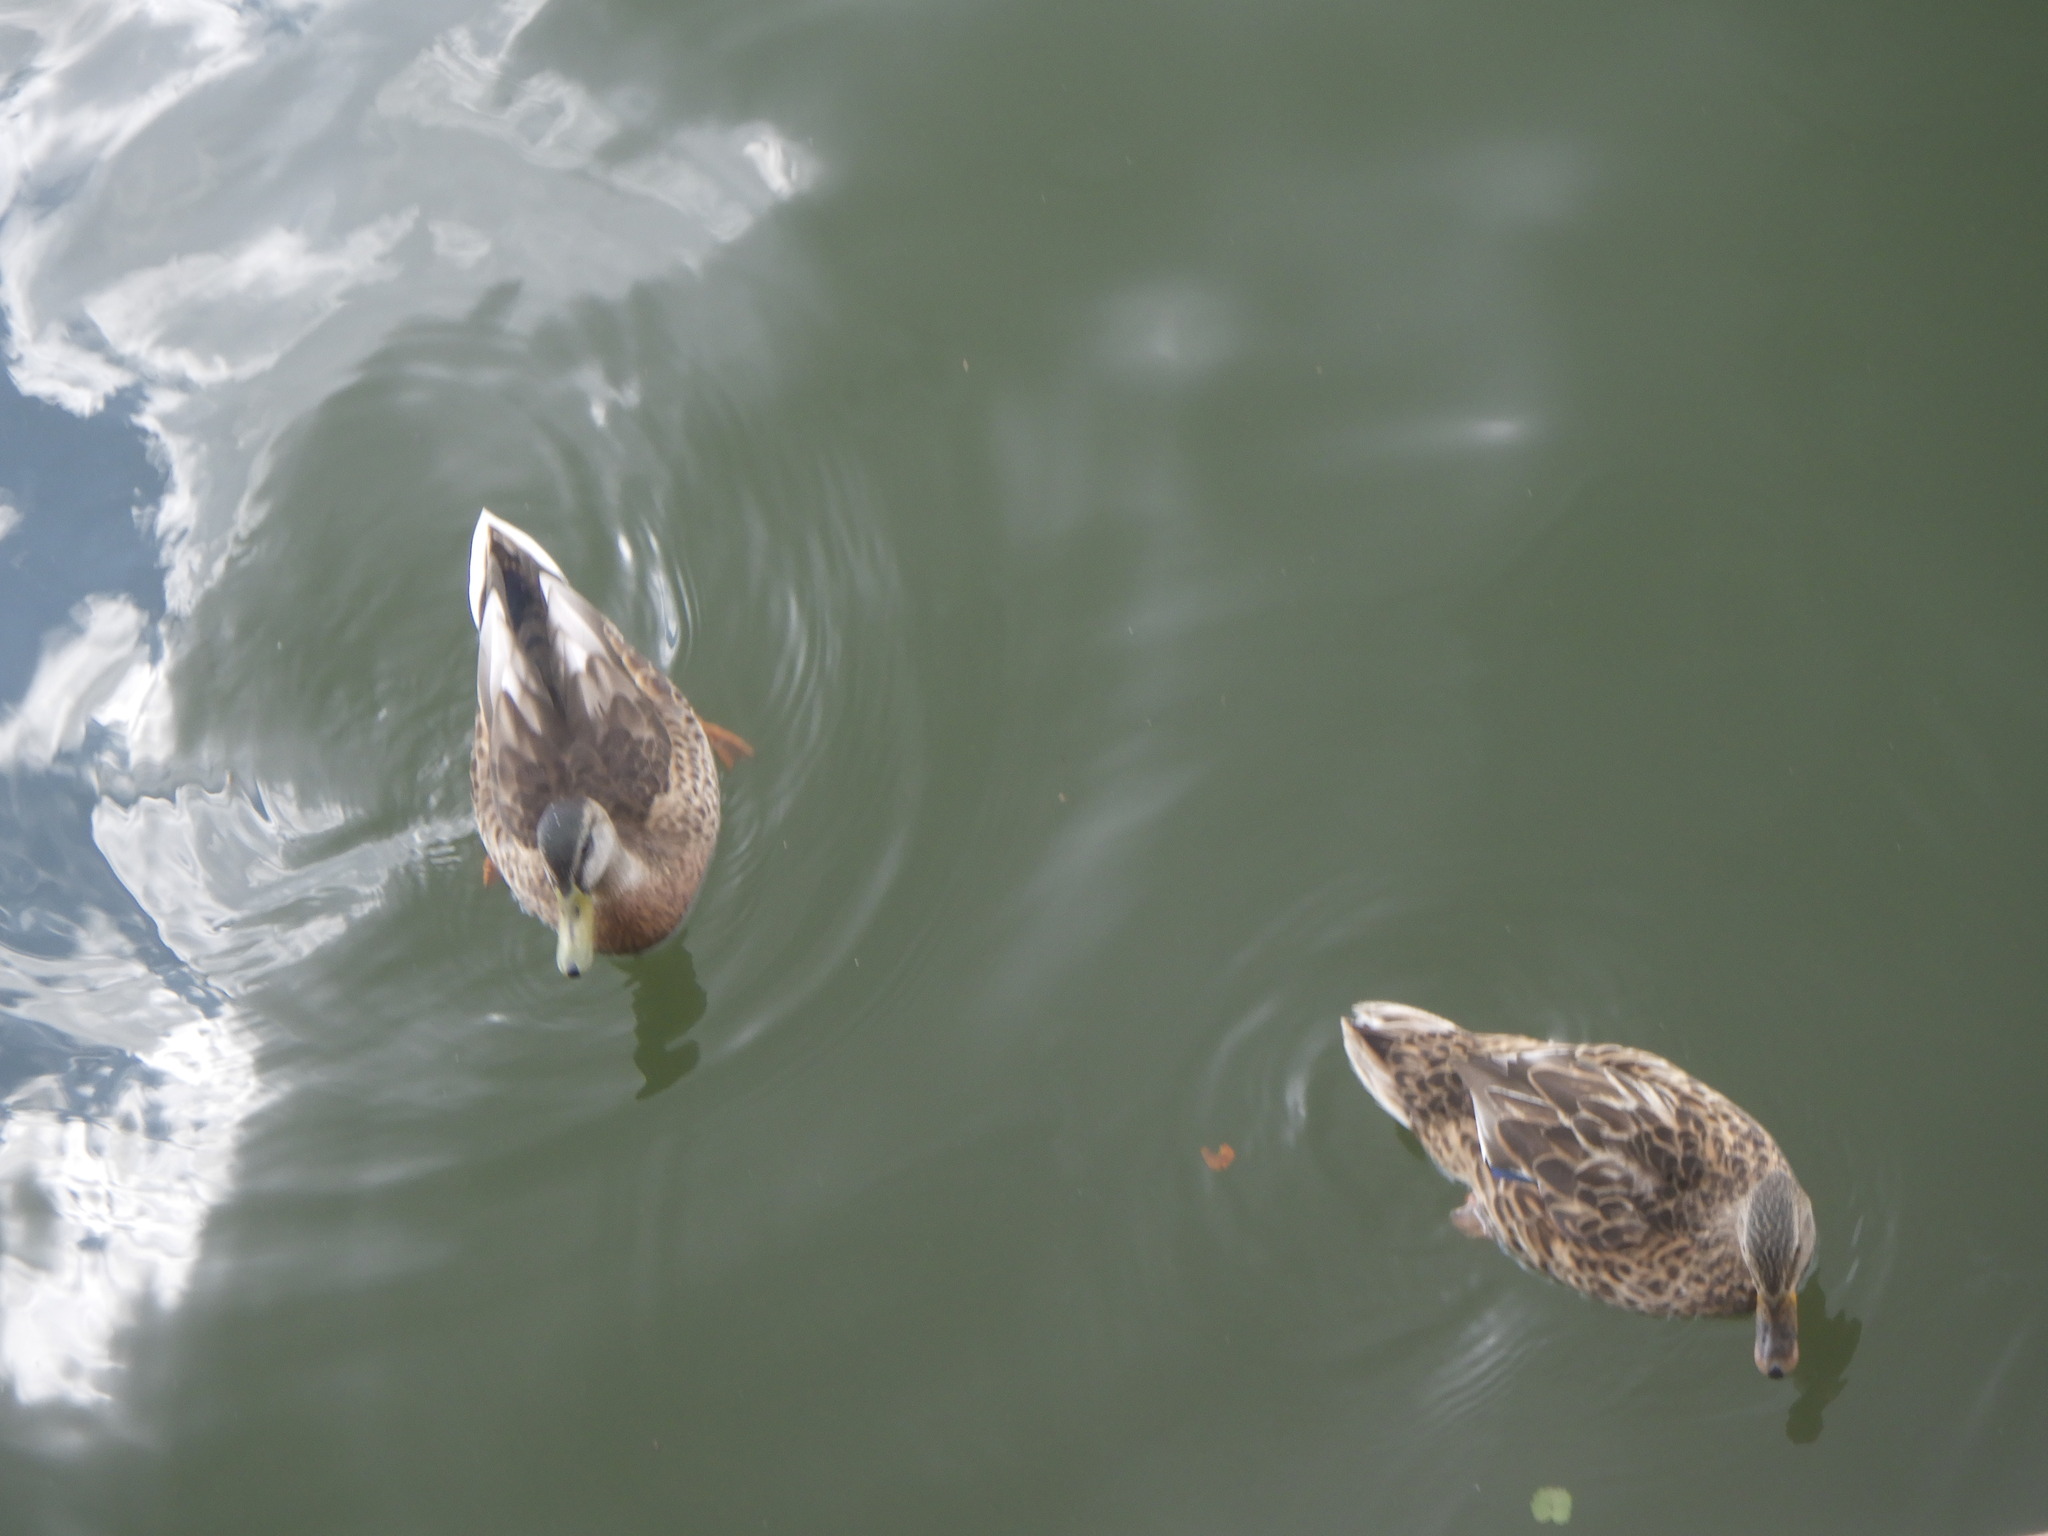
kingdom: Animalia
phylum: Chordata
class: Aves
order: Anseriformes
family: Anatidae
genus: Anas
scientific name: Anas platyrhynchos
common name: Mallard
